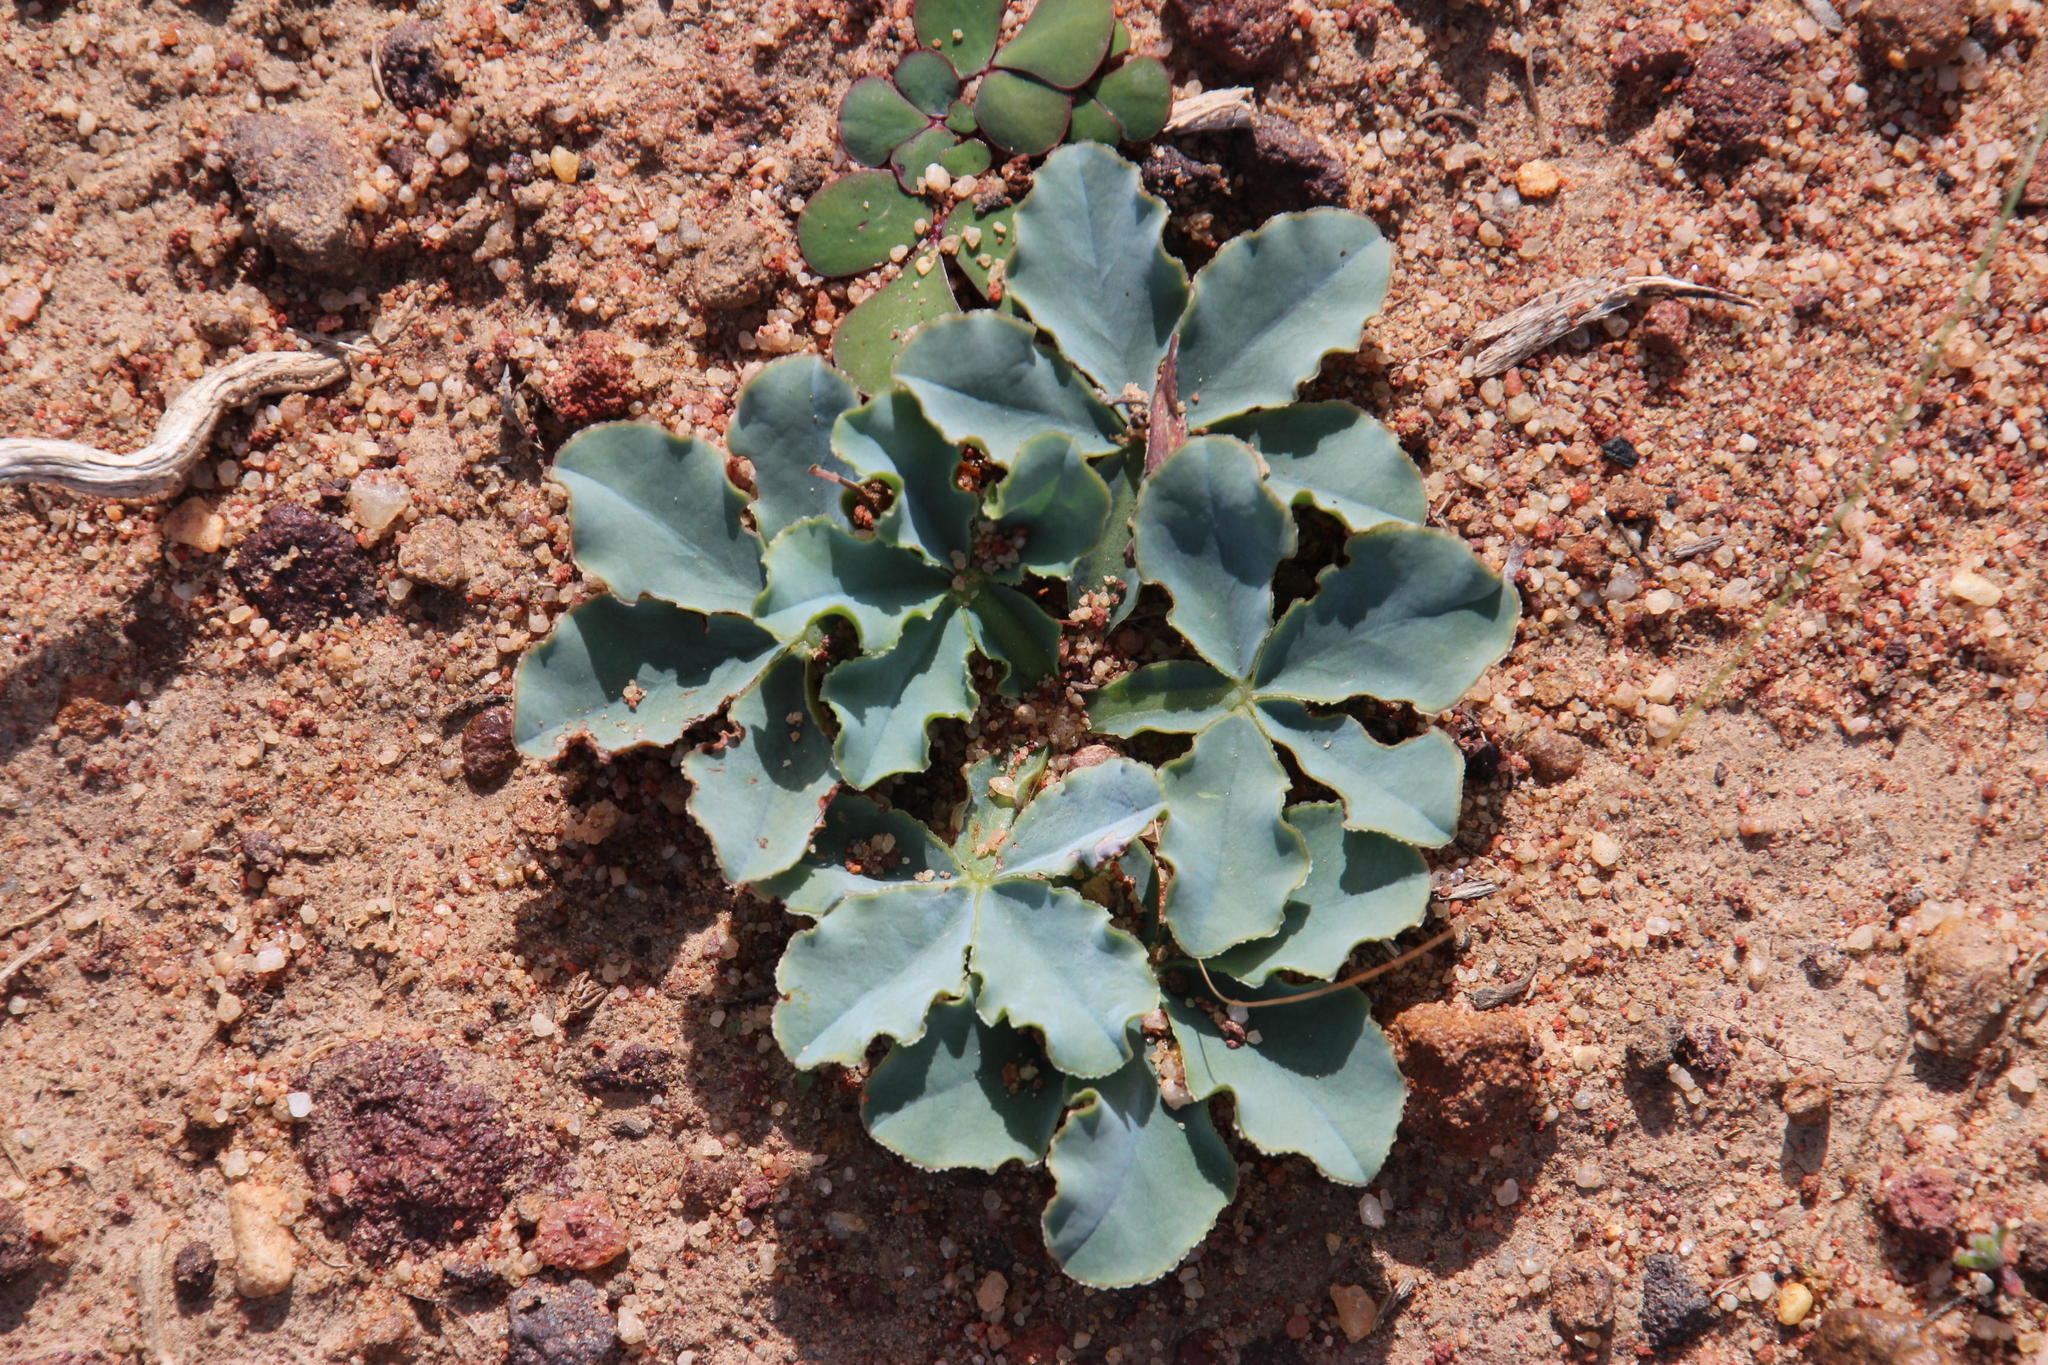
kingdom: Plantae
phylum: Tracheophyta
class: Magnoliopsida
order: Oxalidales
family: Oxalidaceae
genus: Oxalis
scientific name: Oxalis flava
